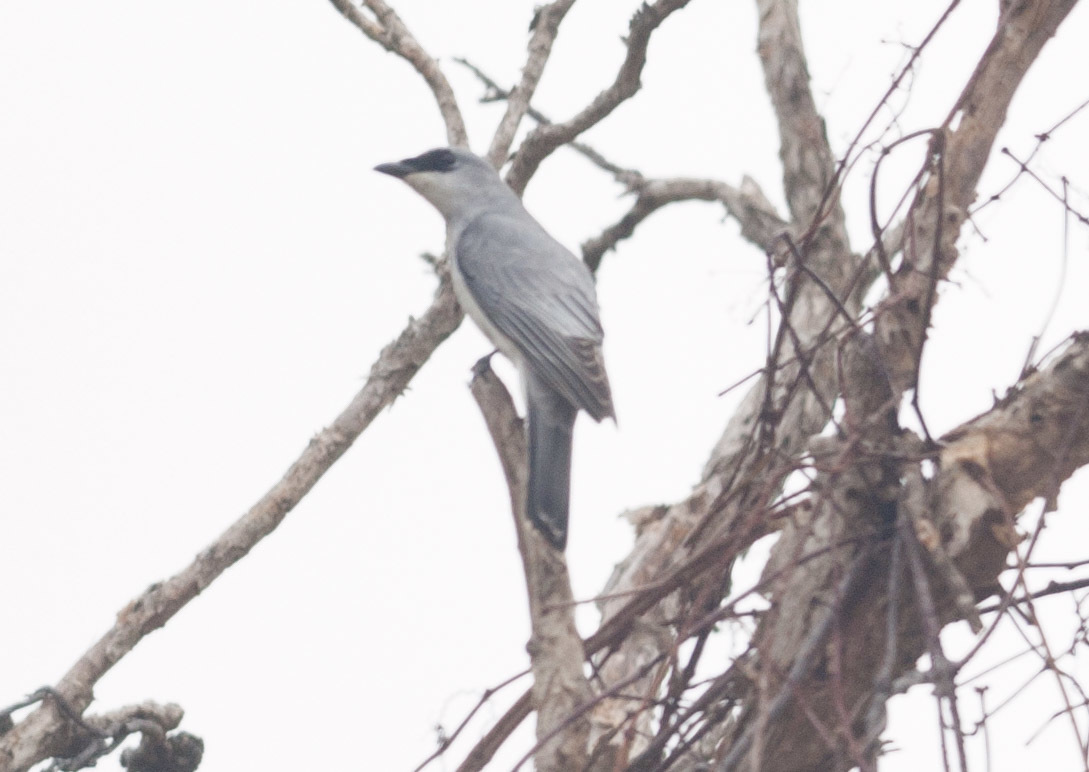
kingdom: Animalia
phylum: Chordata
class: Aves
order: Passeriformes
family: Campephagidae
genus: Coracina
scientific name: Coracina papuensis
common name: White-bellied cuckooshrike
